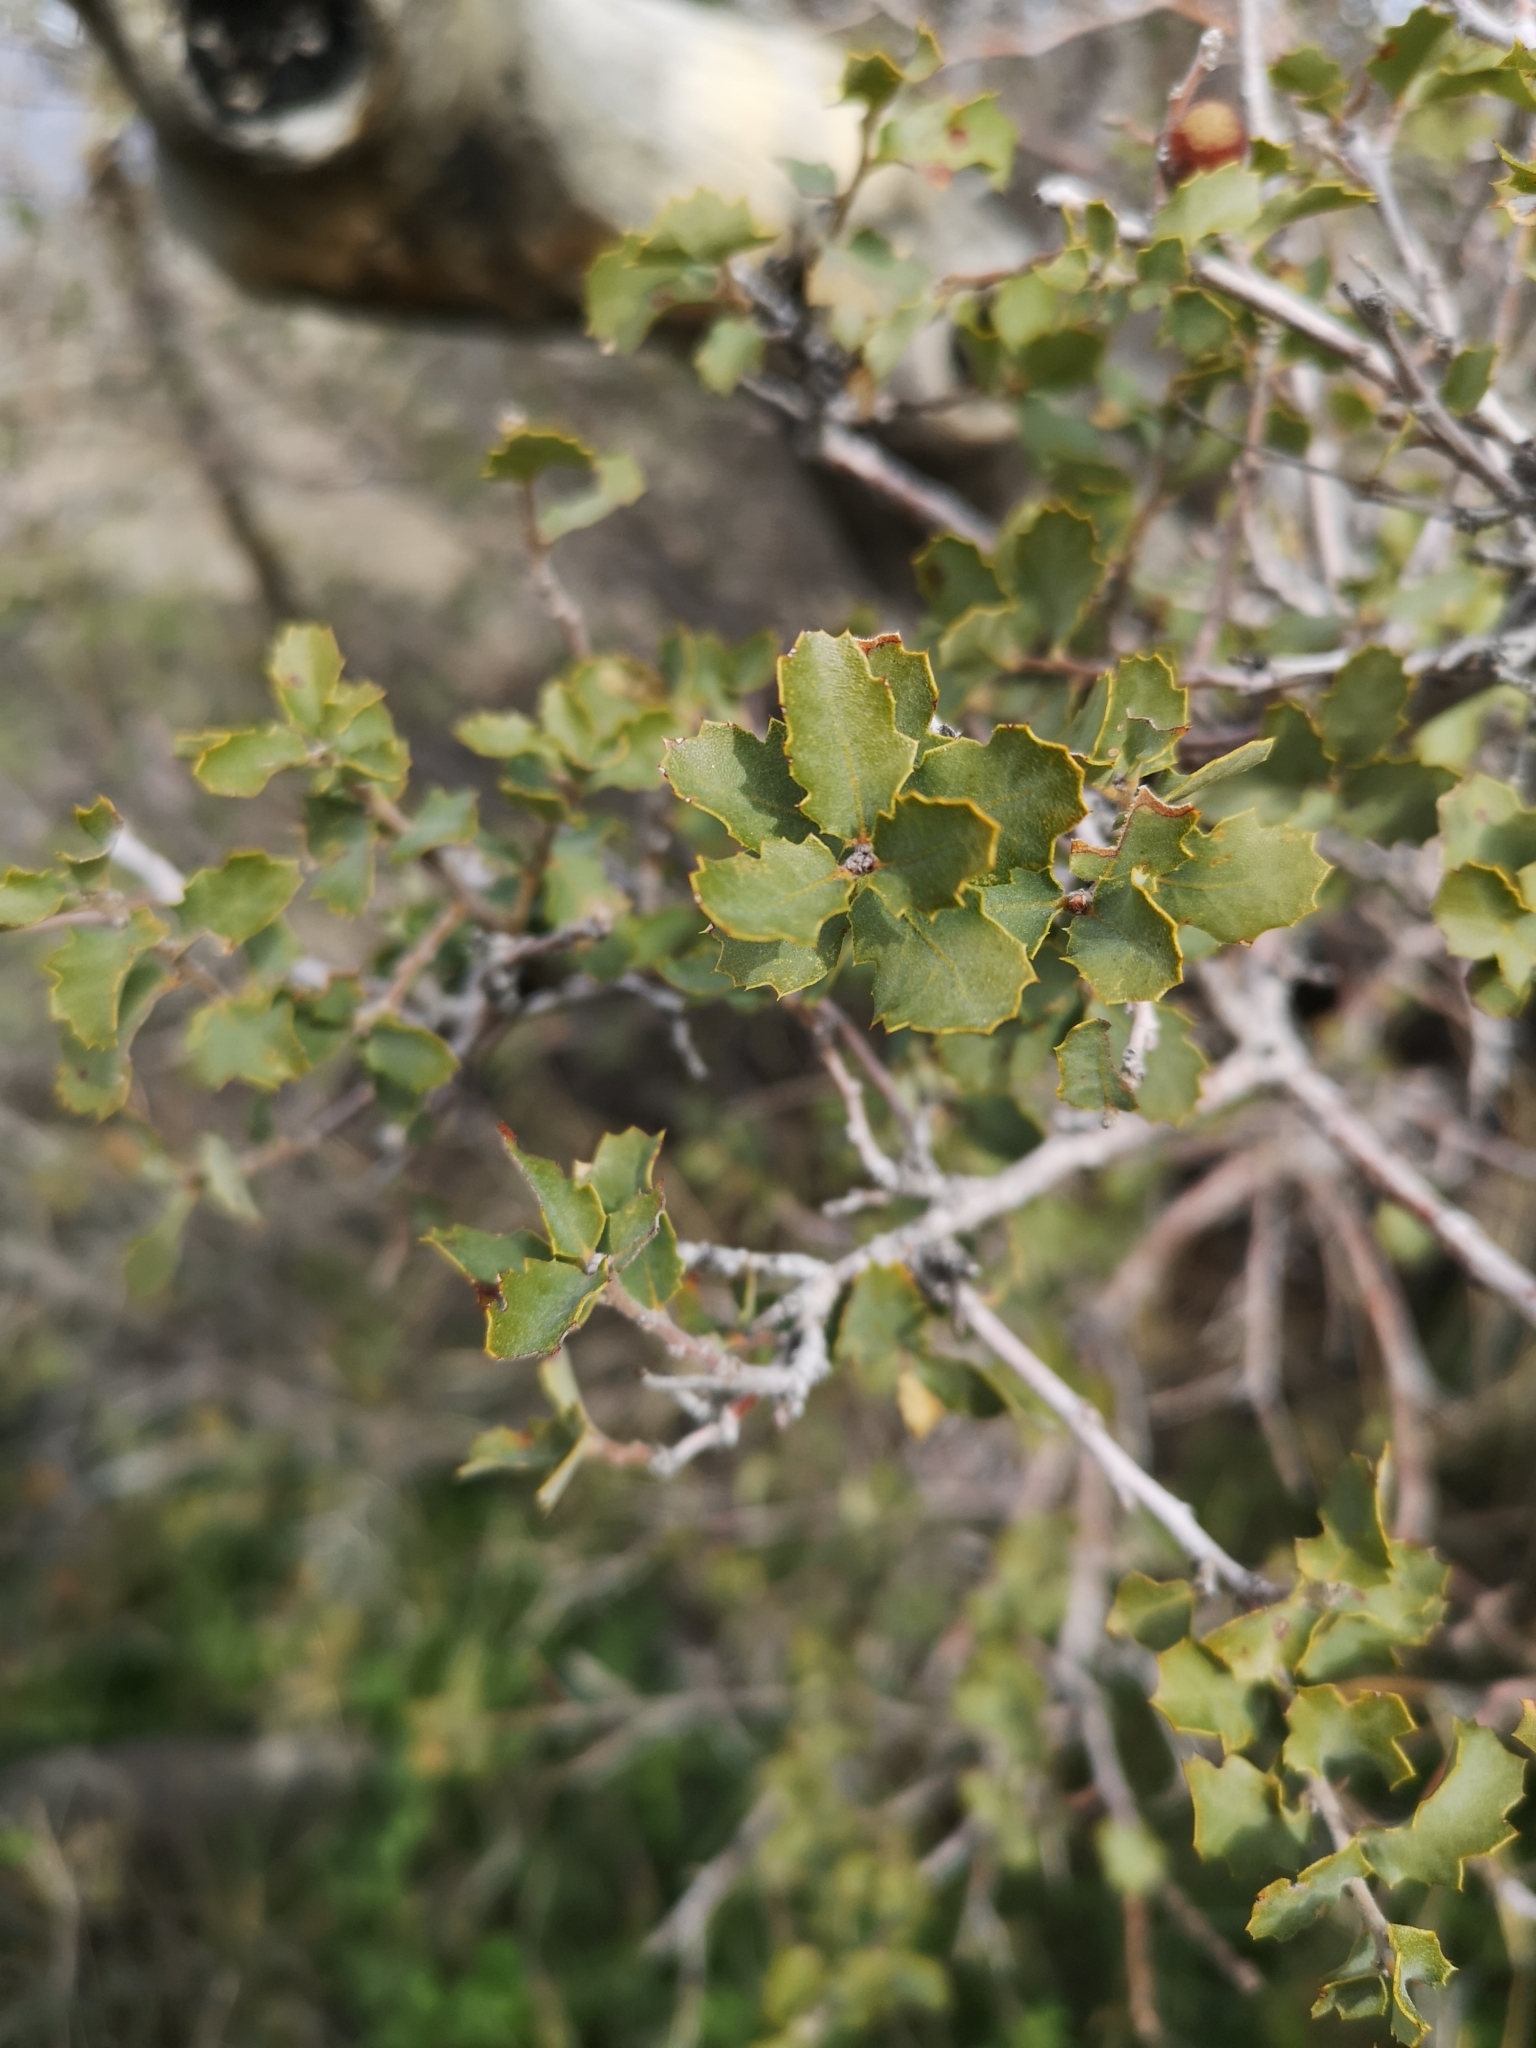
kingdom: Plantae
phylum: Tracheophyta
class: Magnoliopsida
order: Fagales
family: Fagaceae
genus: Quercus
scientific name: Quercus john-tuckeri
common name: Tucker's oak
